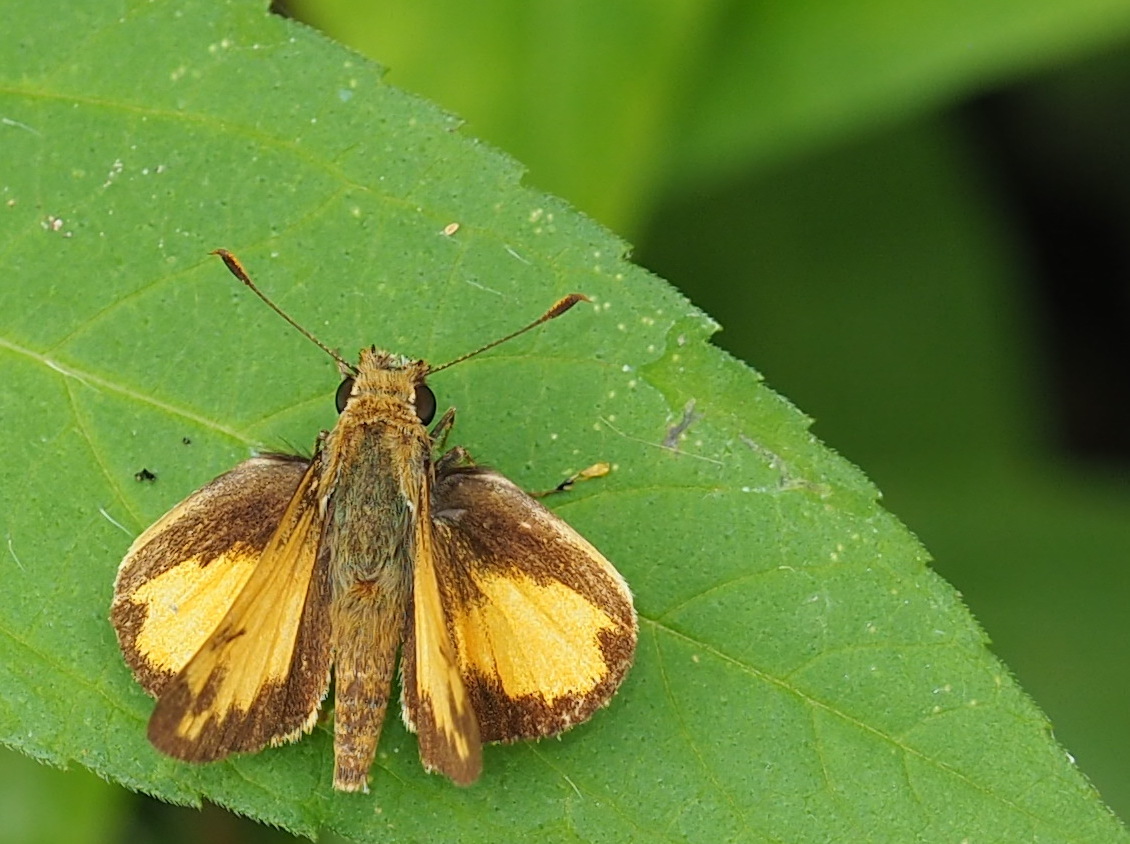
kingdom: Animalia
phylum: Arthropoda
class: Insecta
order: Lepidoptera
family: Hesperiidae
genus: Lon
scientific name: Lon zabulon
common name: Zabulon skipper
